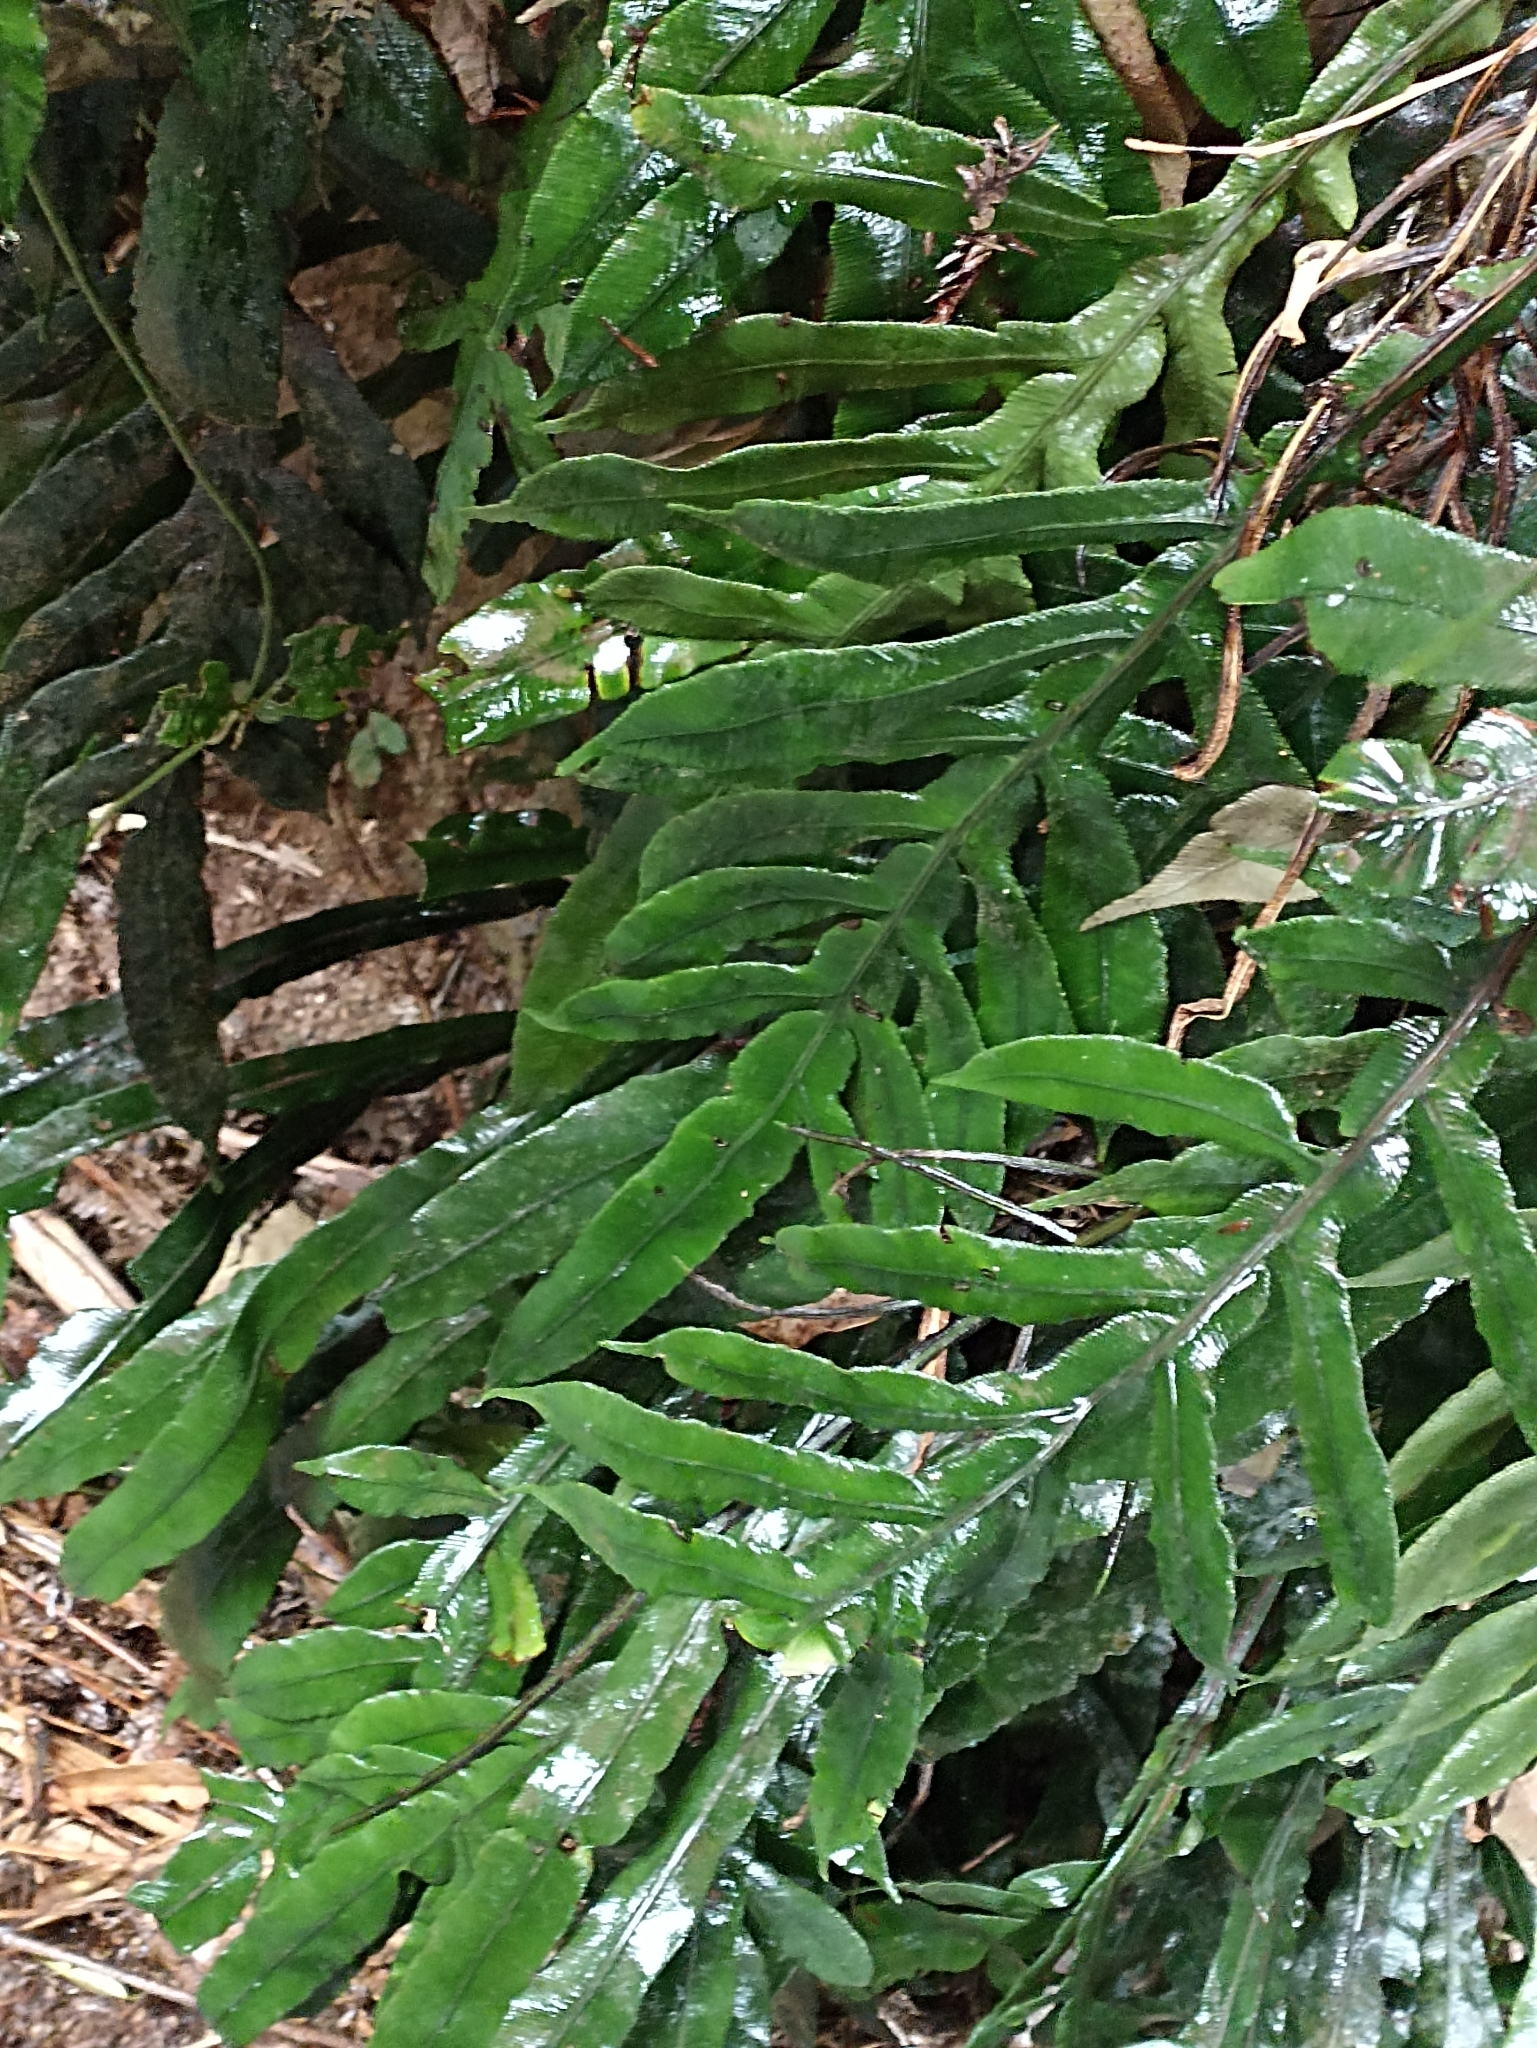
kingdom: Plantae
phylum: Tracheophyta
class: Polypodiopsida
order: Polypodiales
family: Blechnaceae
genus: Austroblechnum
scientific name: Austroblechnum patersonii
